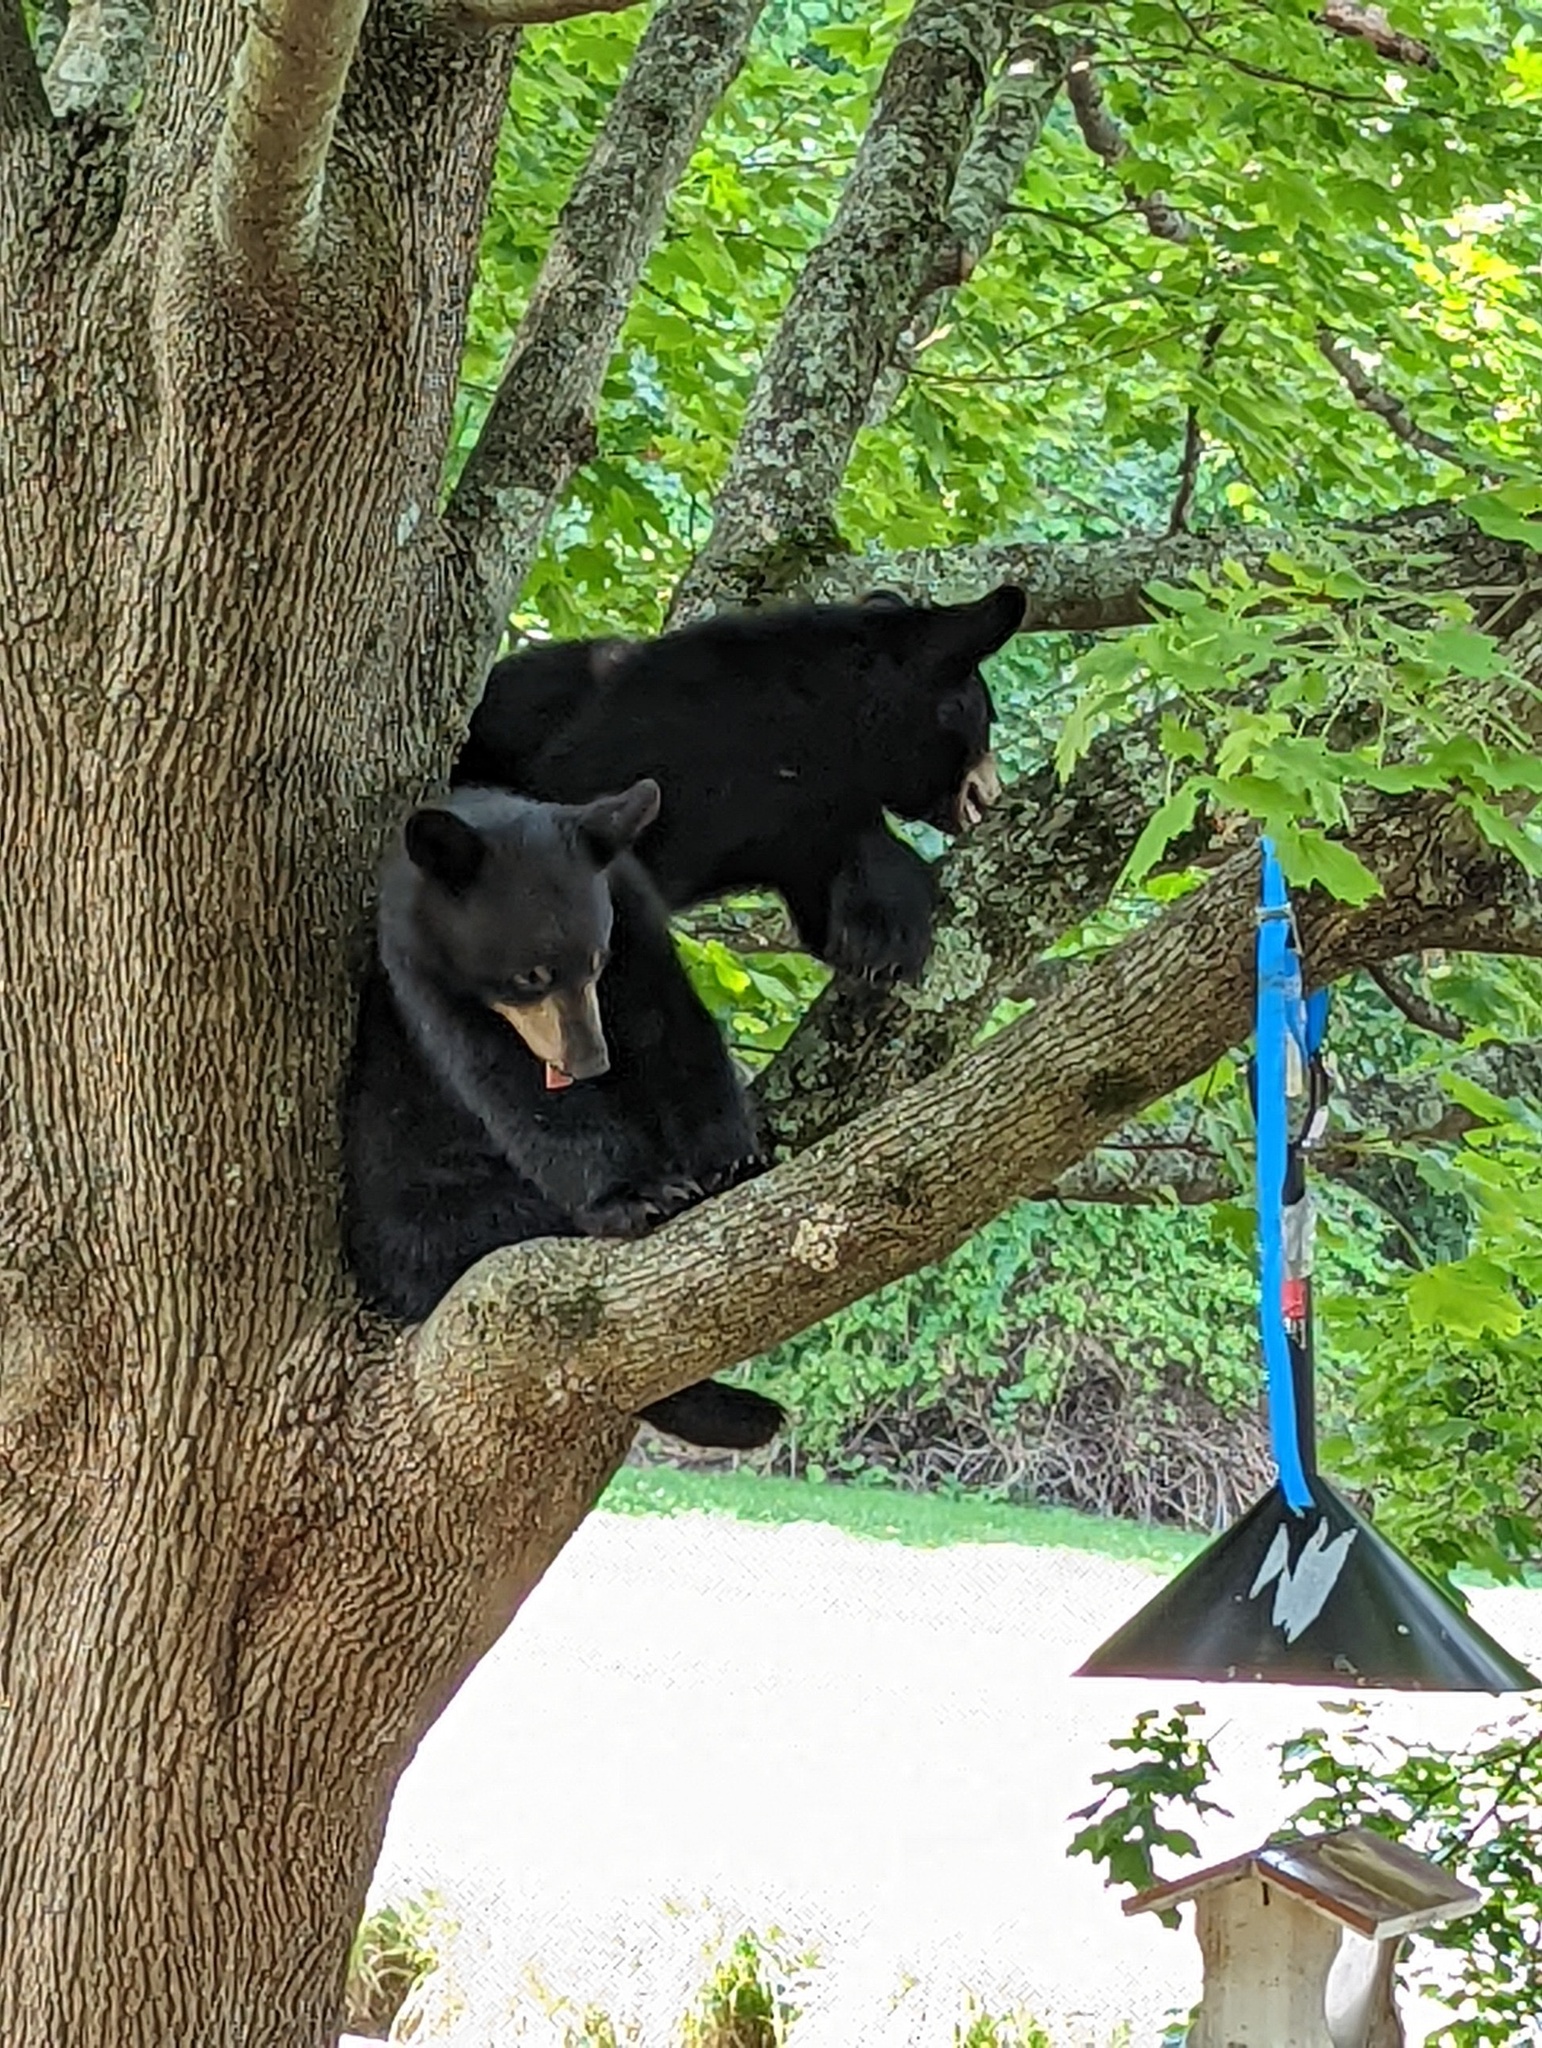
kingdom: Animalia
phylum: Chordata
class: Mammalia
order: Carnivora
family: Ursidae
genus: Ursus
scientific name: Ursus americanus
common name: American black bear
